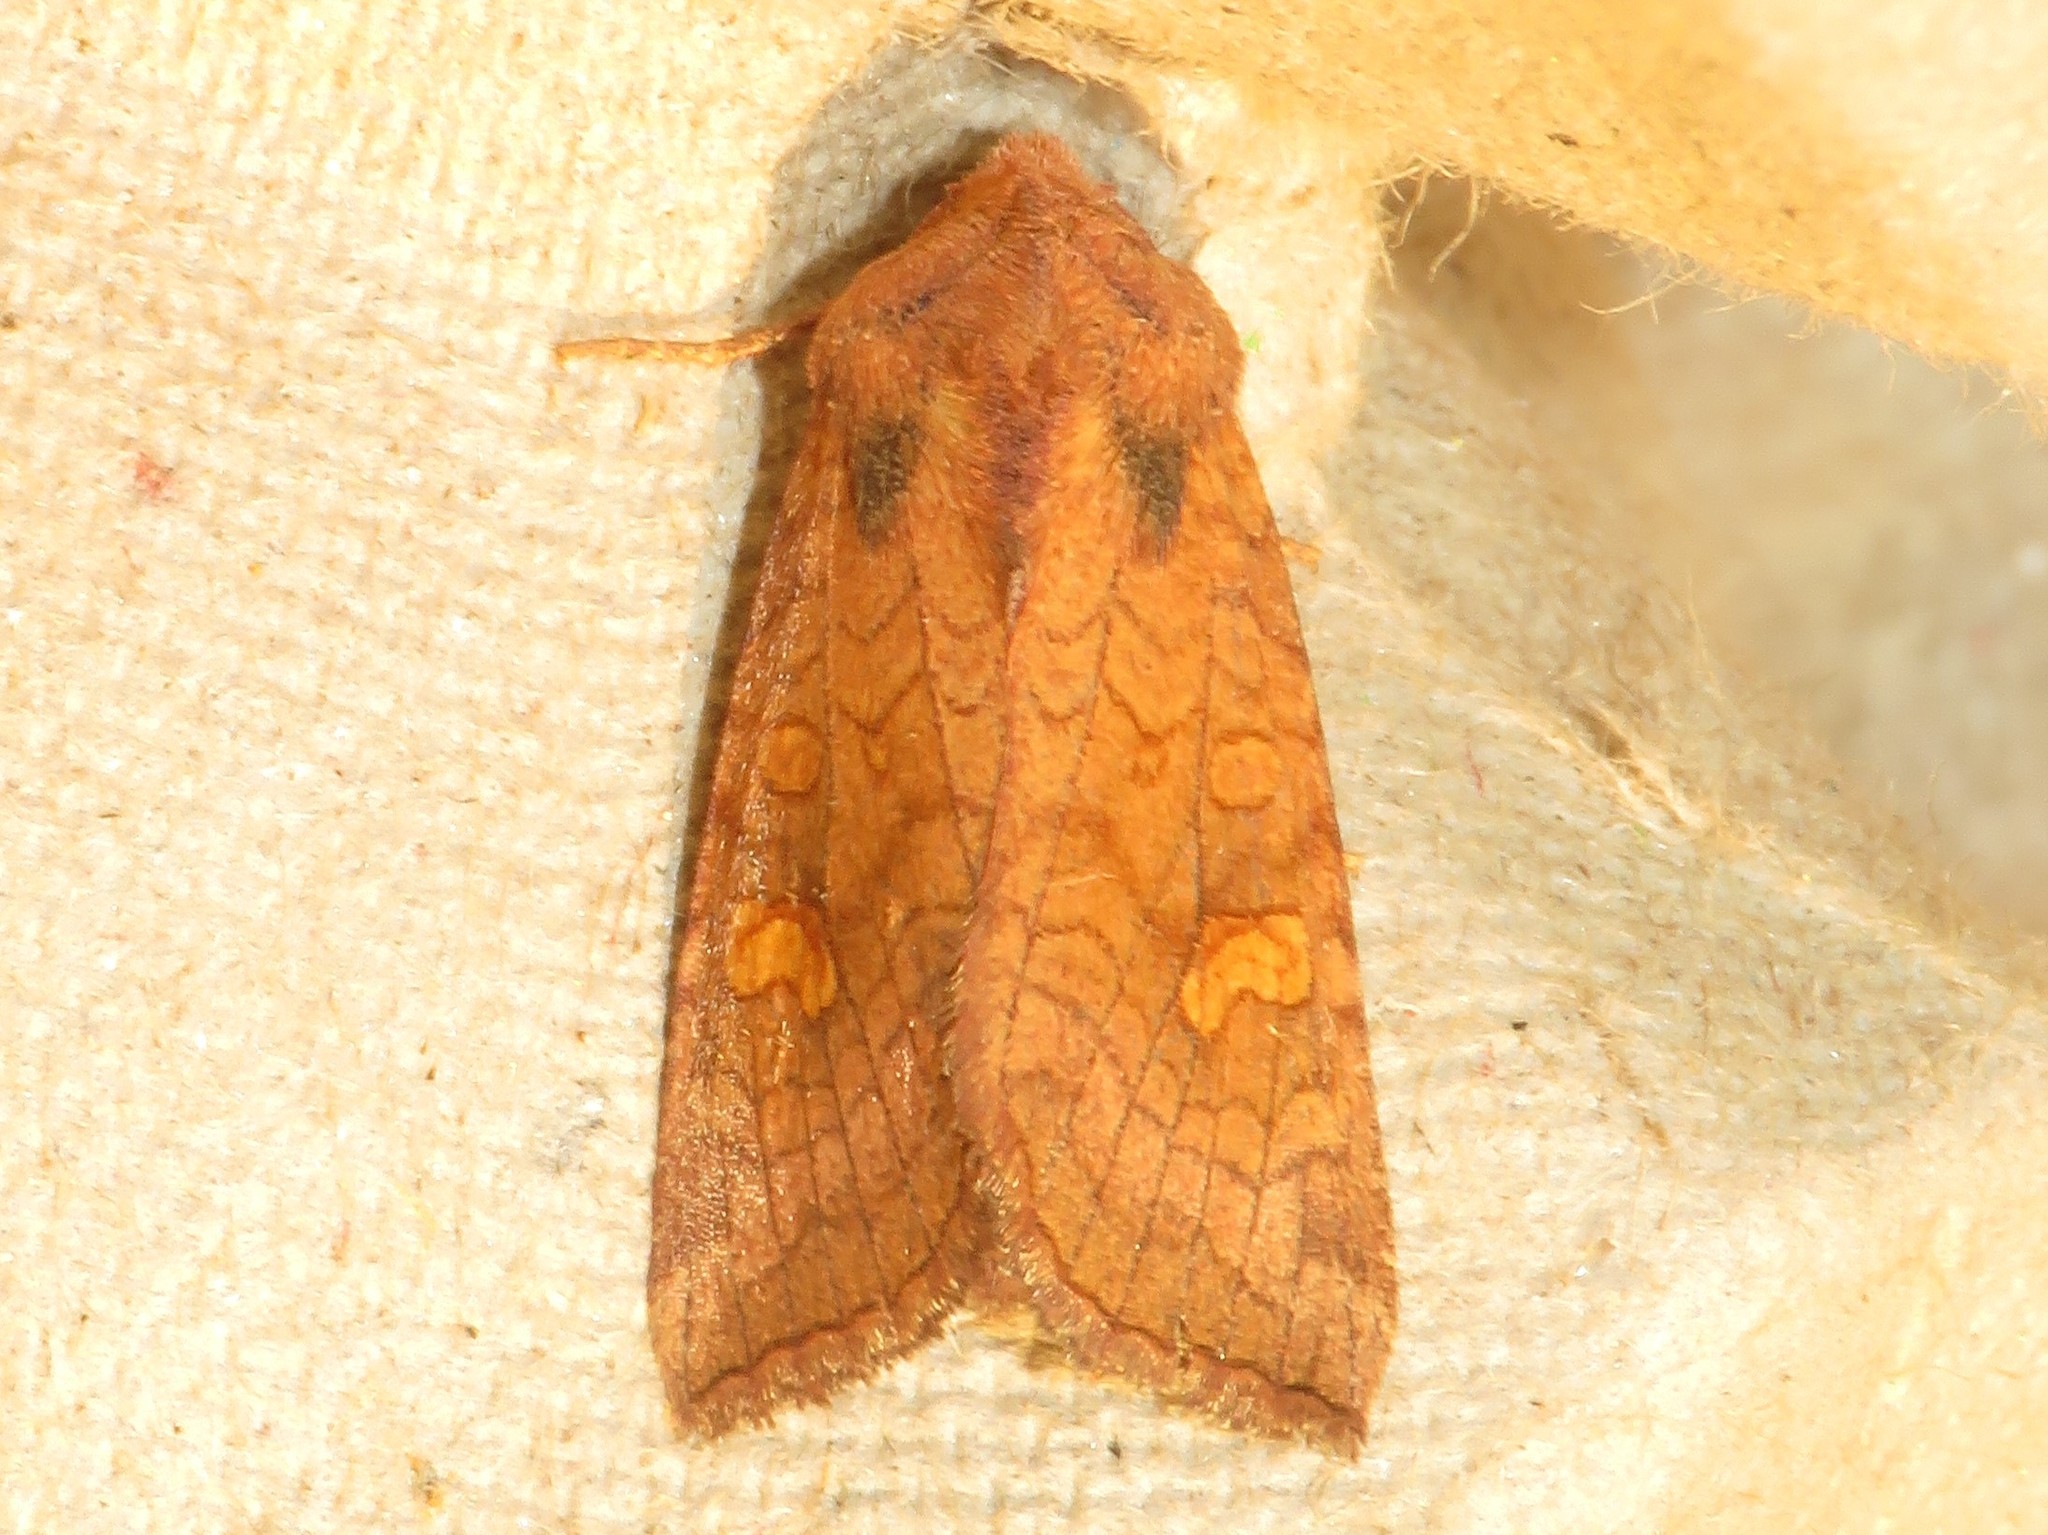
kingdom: Animalia
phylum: Arthropoda
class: Insecta
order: Lepidoptera
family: Noctuidae
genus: Amphipoea
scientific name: Amphipoea americana
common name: American ear moth
